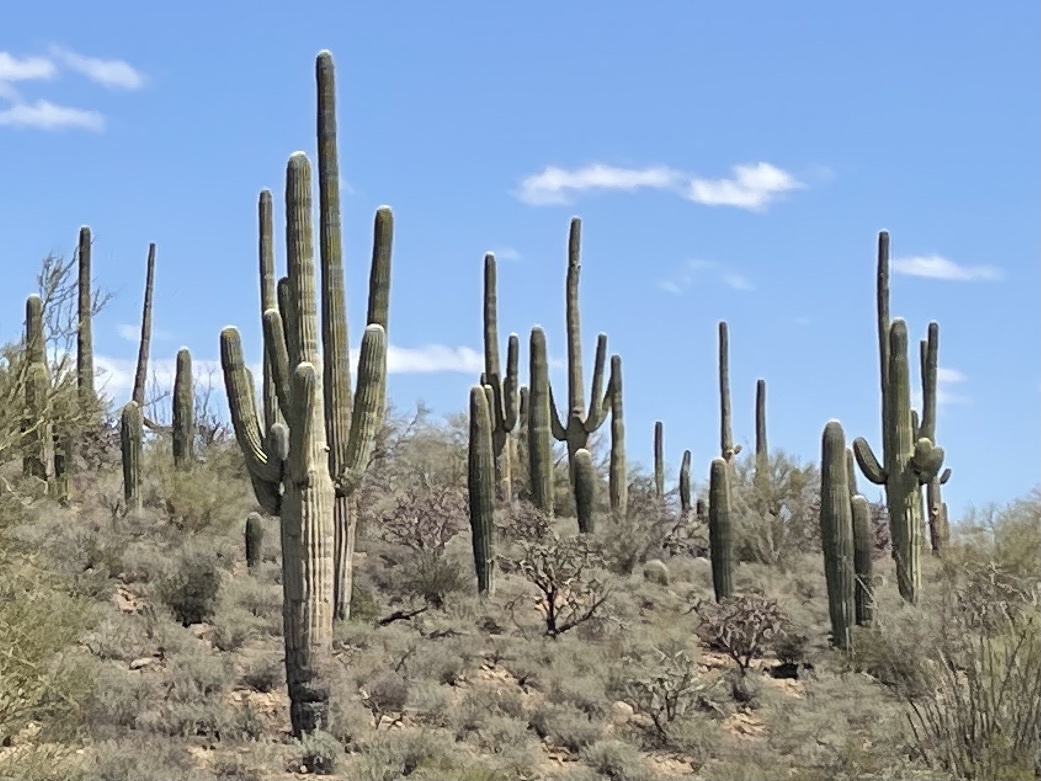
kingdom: Plantae
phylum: Tracheophyta
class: Magnoliopsida
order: Caryophyllales
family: Cactaceae
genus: Carnegiea
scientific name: Carnegiea gigantea
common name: Saguaro
